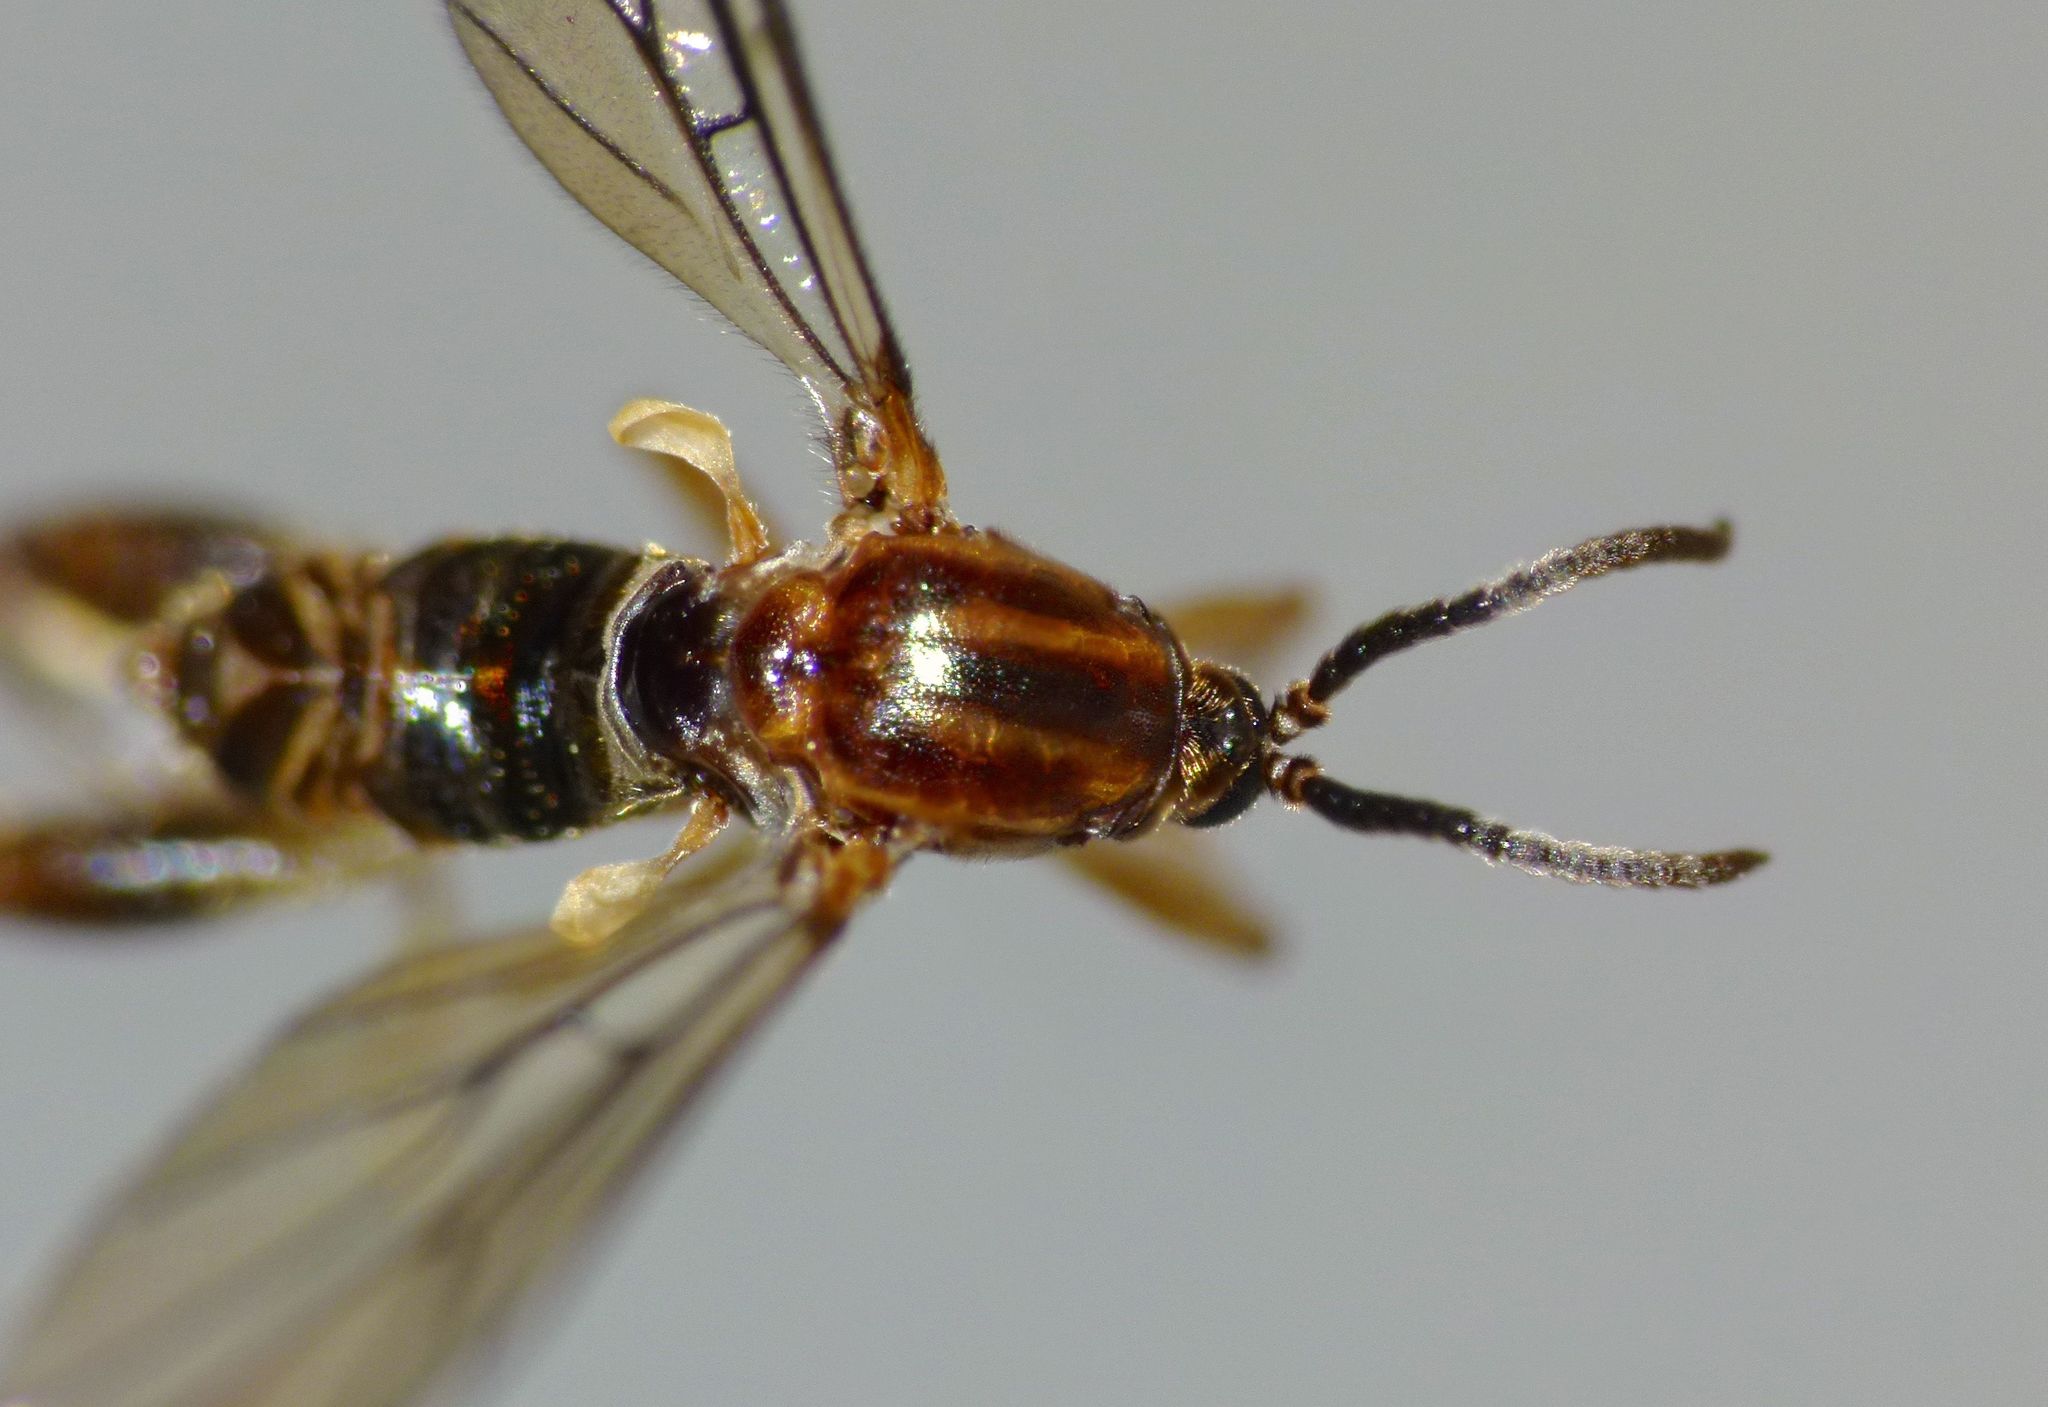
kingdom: Animalia
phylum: Arthropoda
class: Insecta
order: Diptera
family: Canthyloscelididae
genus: Canthyloscelis
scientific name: Canthyloscelis antennata
